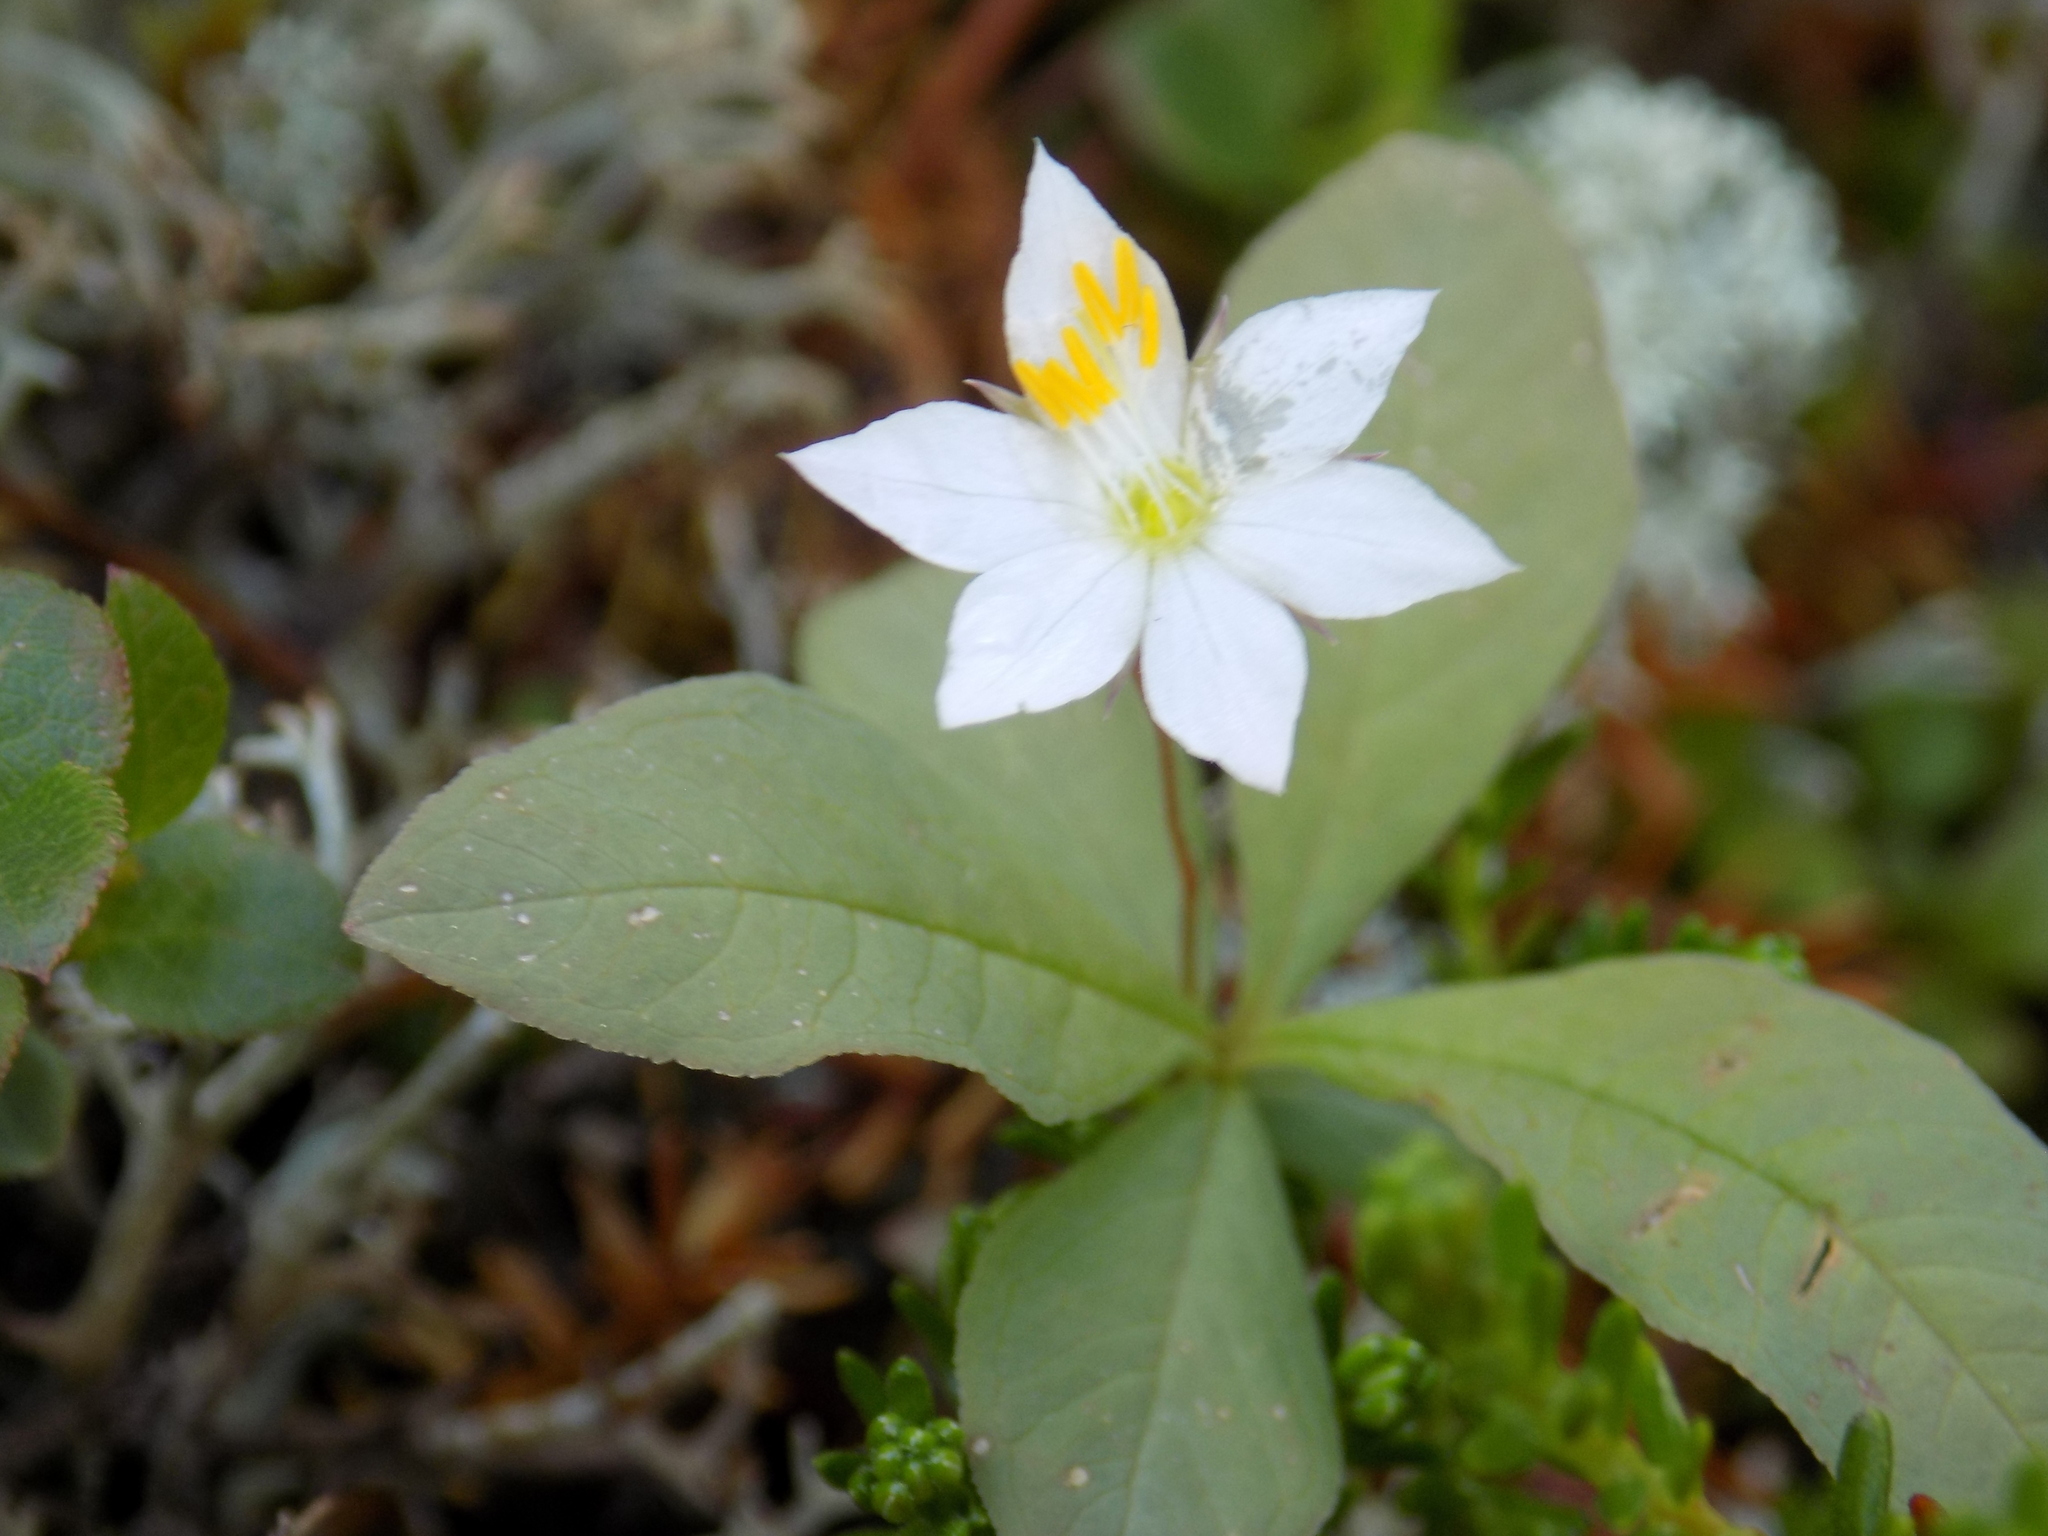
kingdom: Plantae
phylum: Tracheophyta
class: Magnoliopsida
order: Ericales
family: Primulaceae
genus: Lysimachia
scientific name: Lysimachia europaea
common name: Arctic starflower
